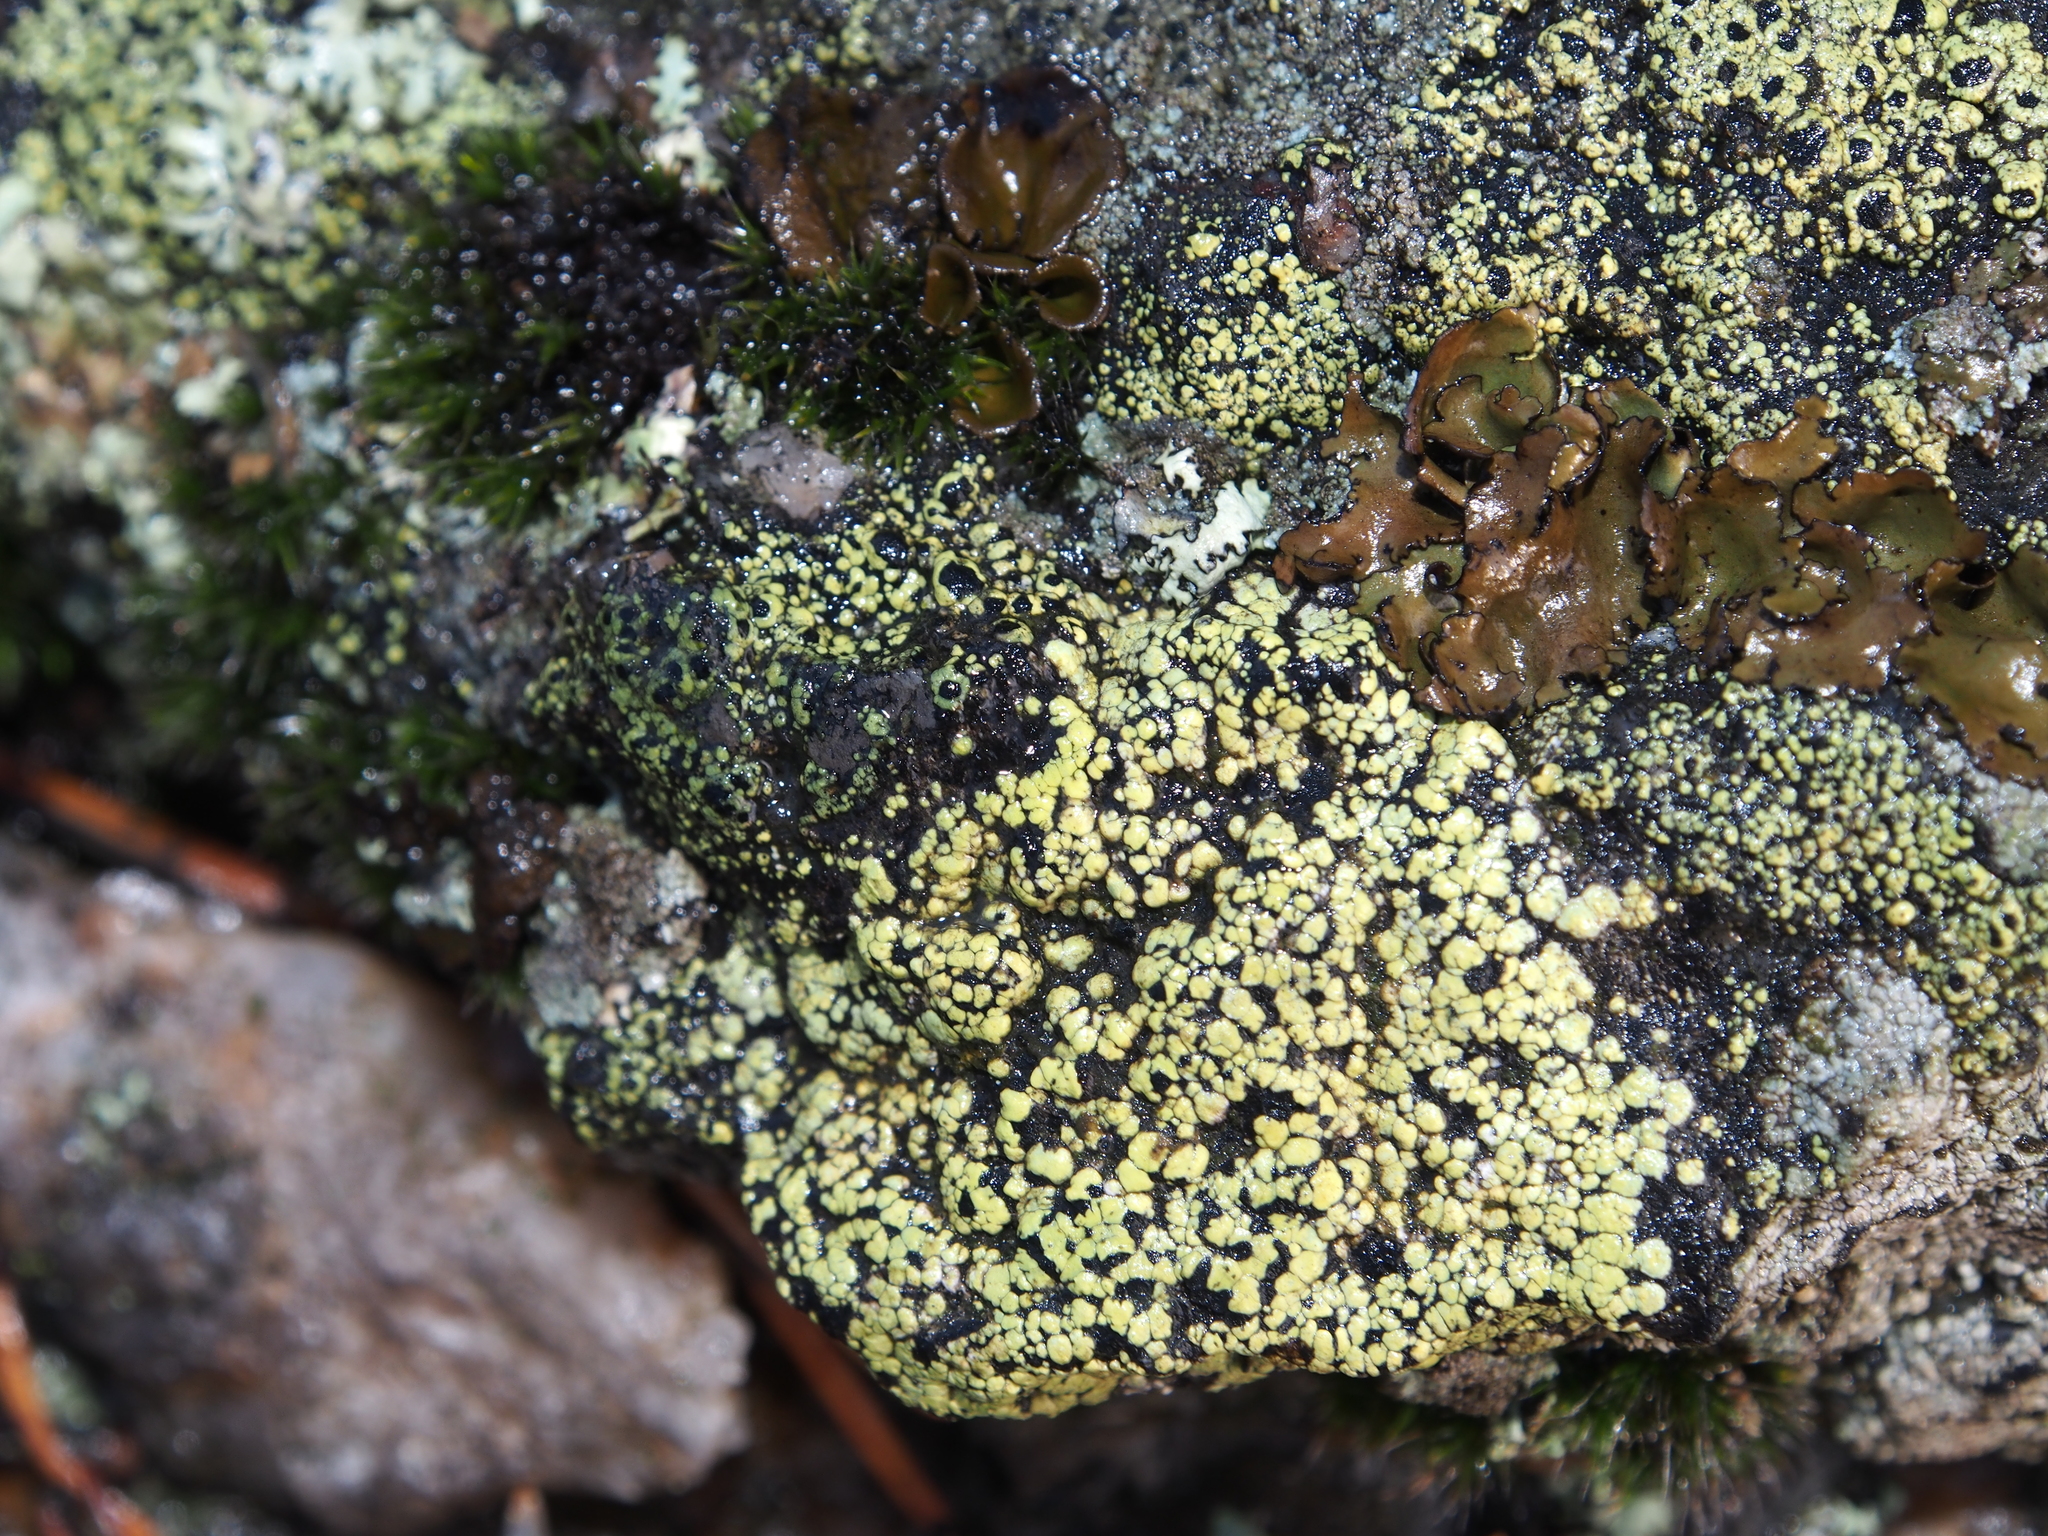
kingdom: Fungi
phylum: Ascomycota
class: Lecanoromycetes
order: Rhizocarpales
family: Rhizocarpaceae
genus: Rhizocarpon
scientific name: Rhizocarpon lecanorinum
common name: Crescent map lichen
